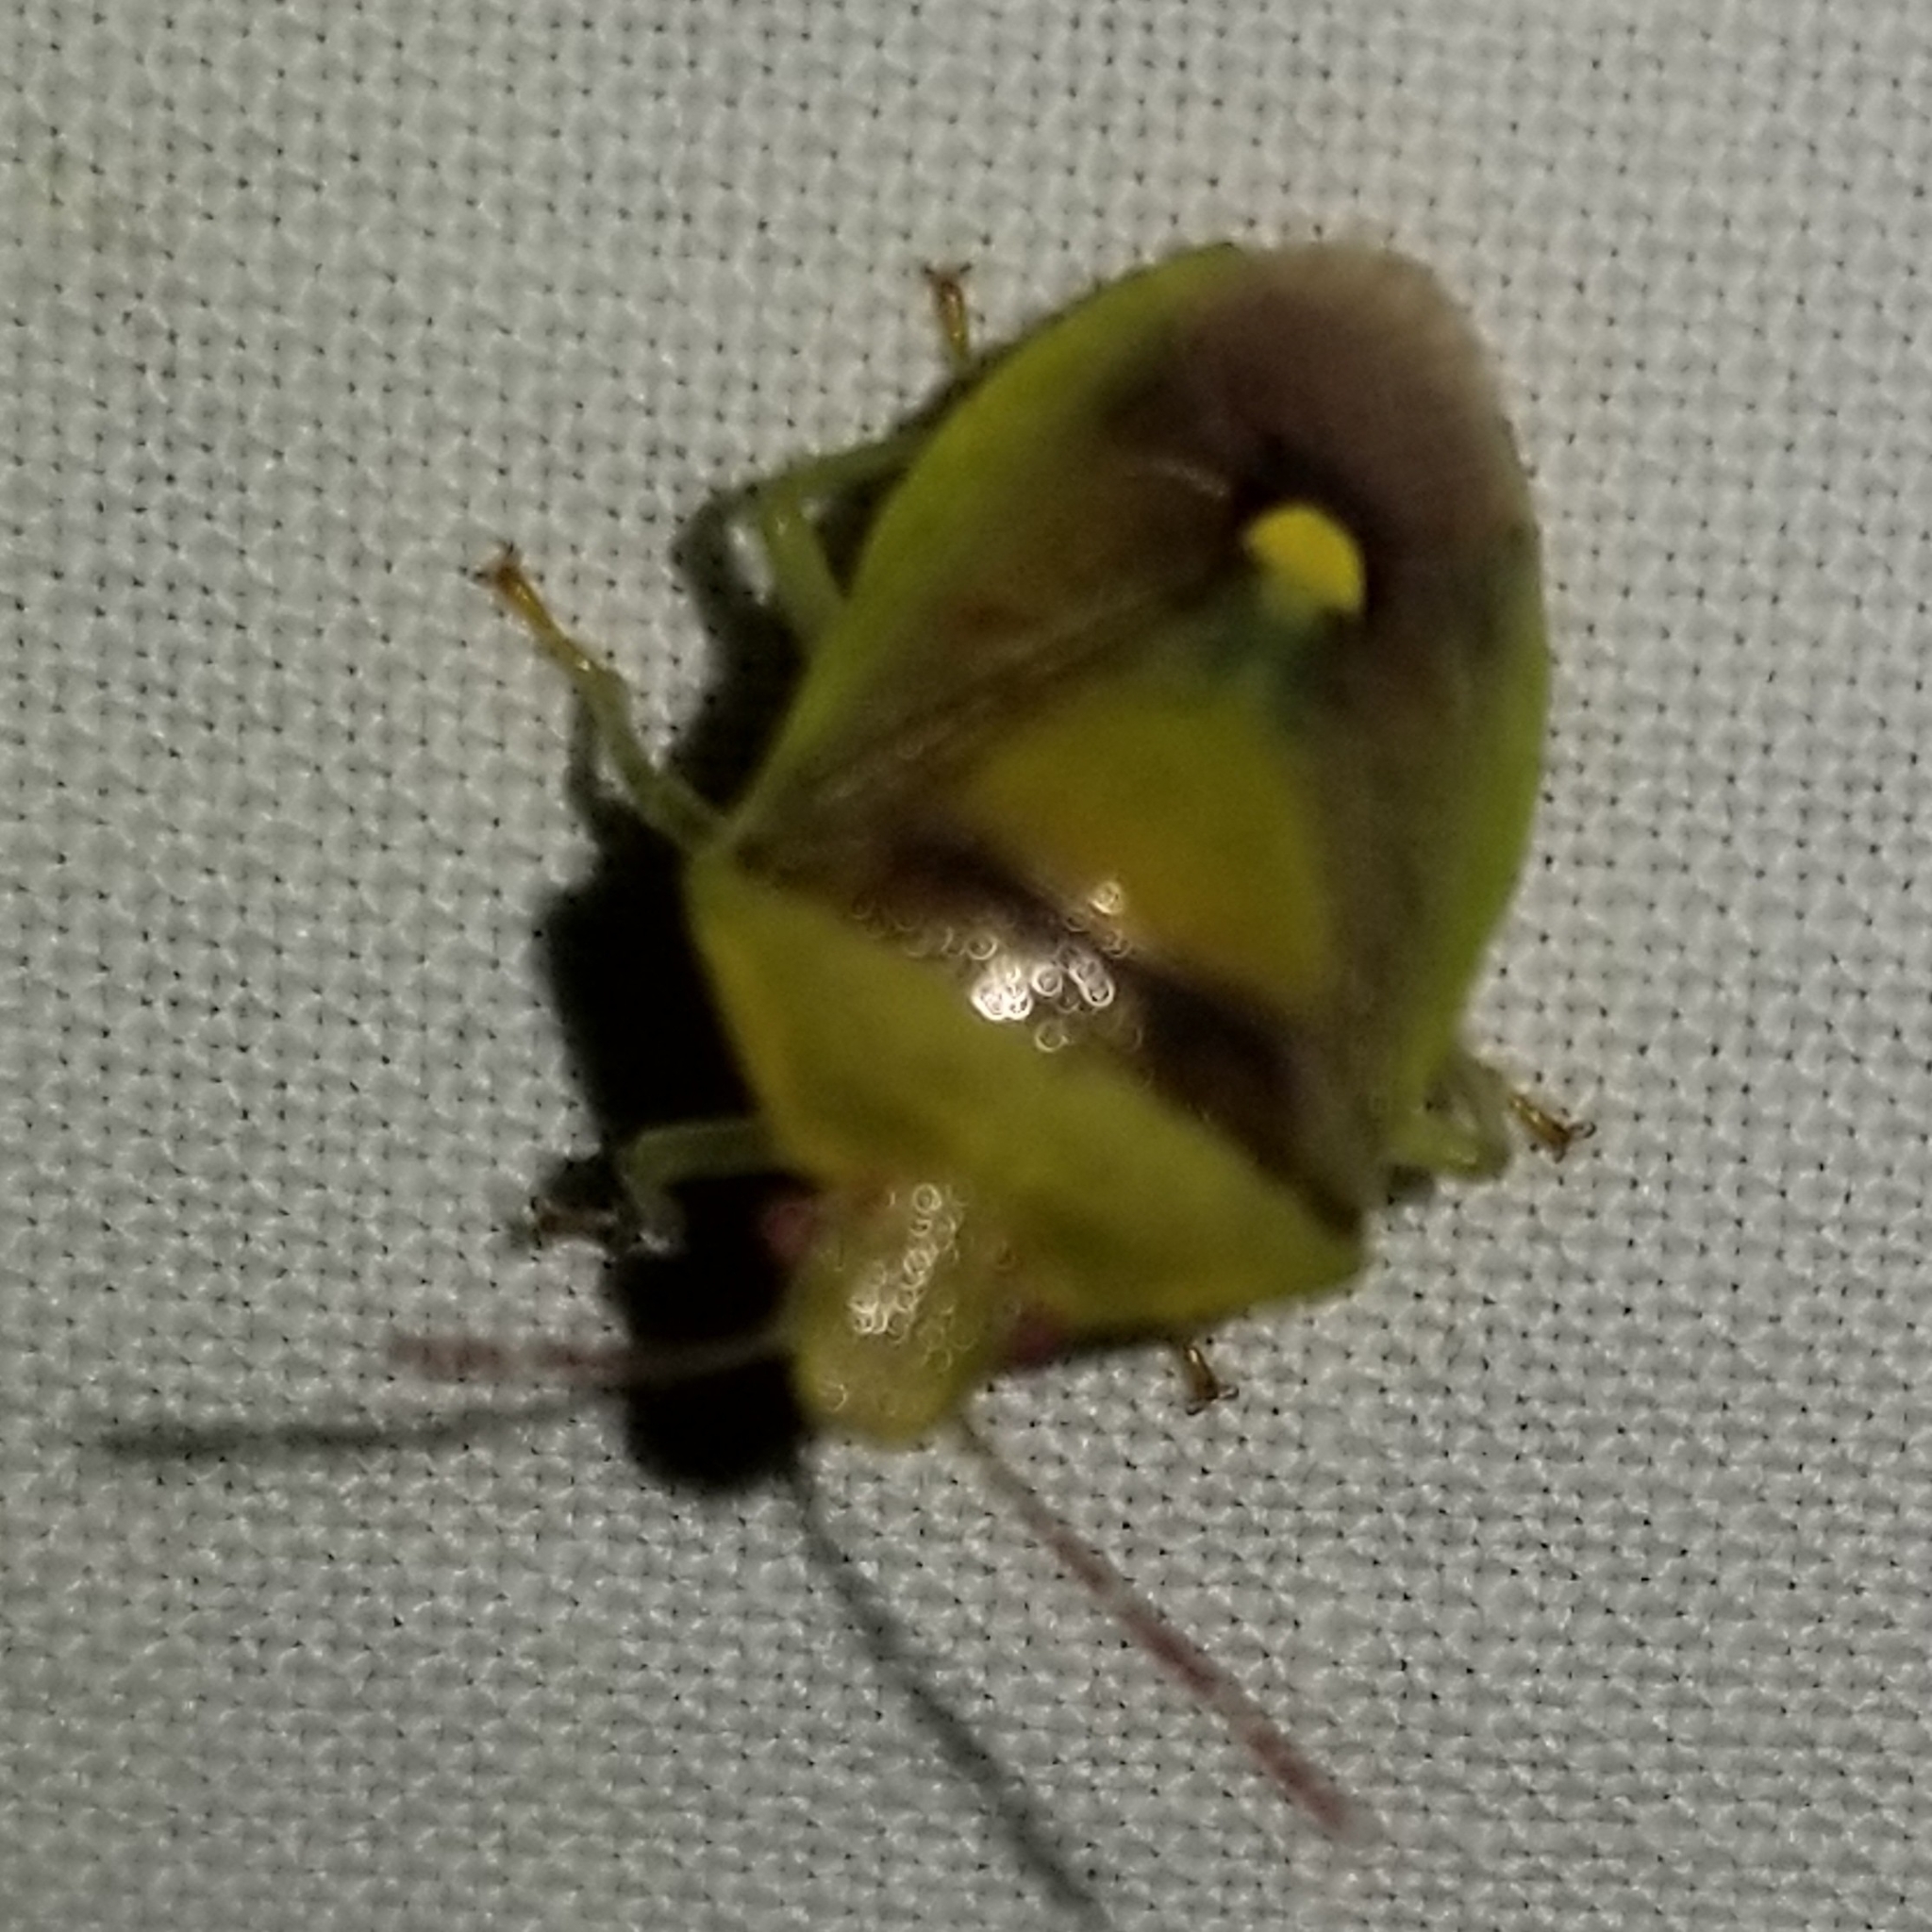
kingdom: Animalia
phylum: Arthropoda
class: Insecta
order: Hemiptera
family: Pentatomidae
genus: Banasa
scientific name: Banasa dimidiata
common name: Green burgundy stink bug
